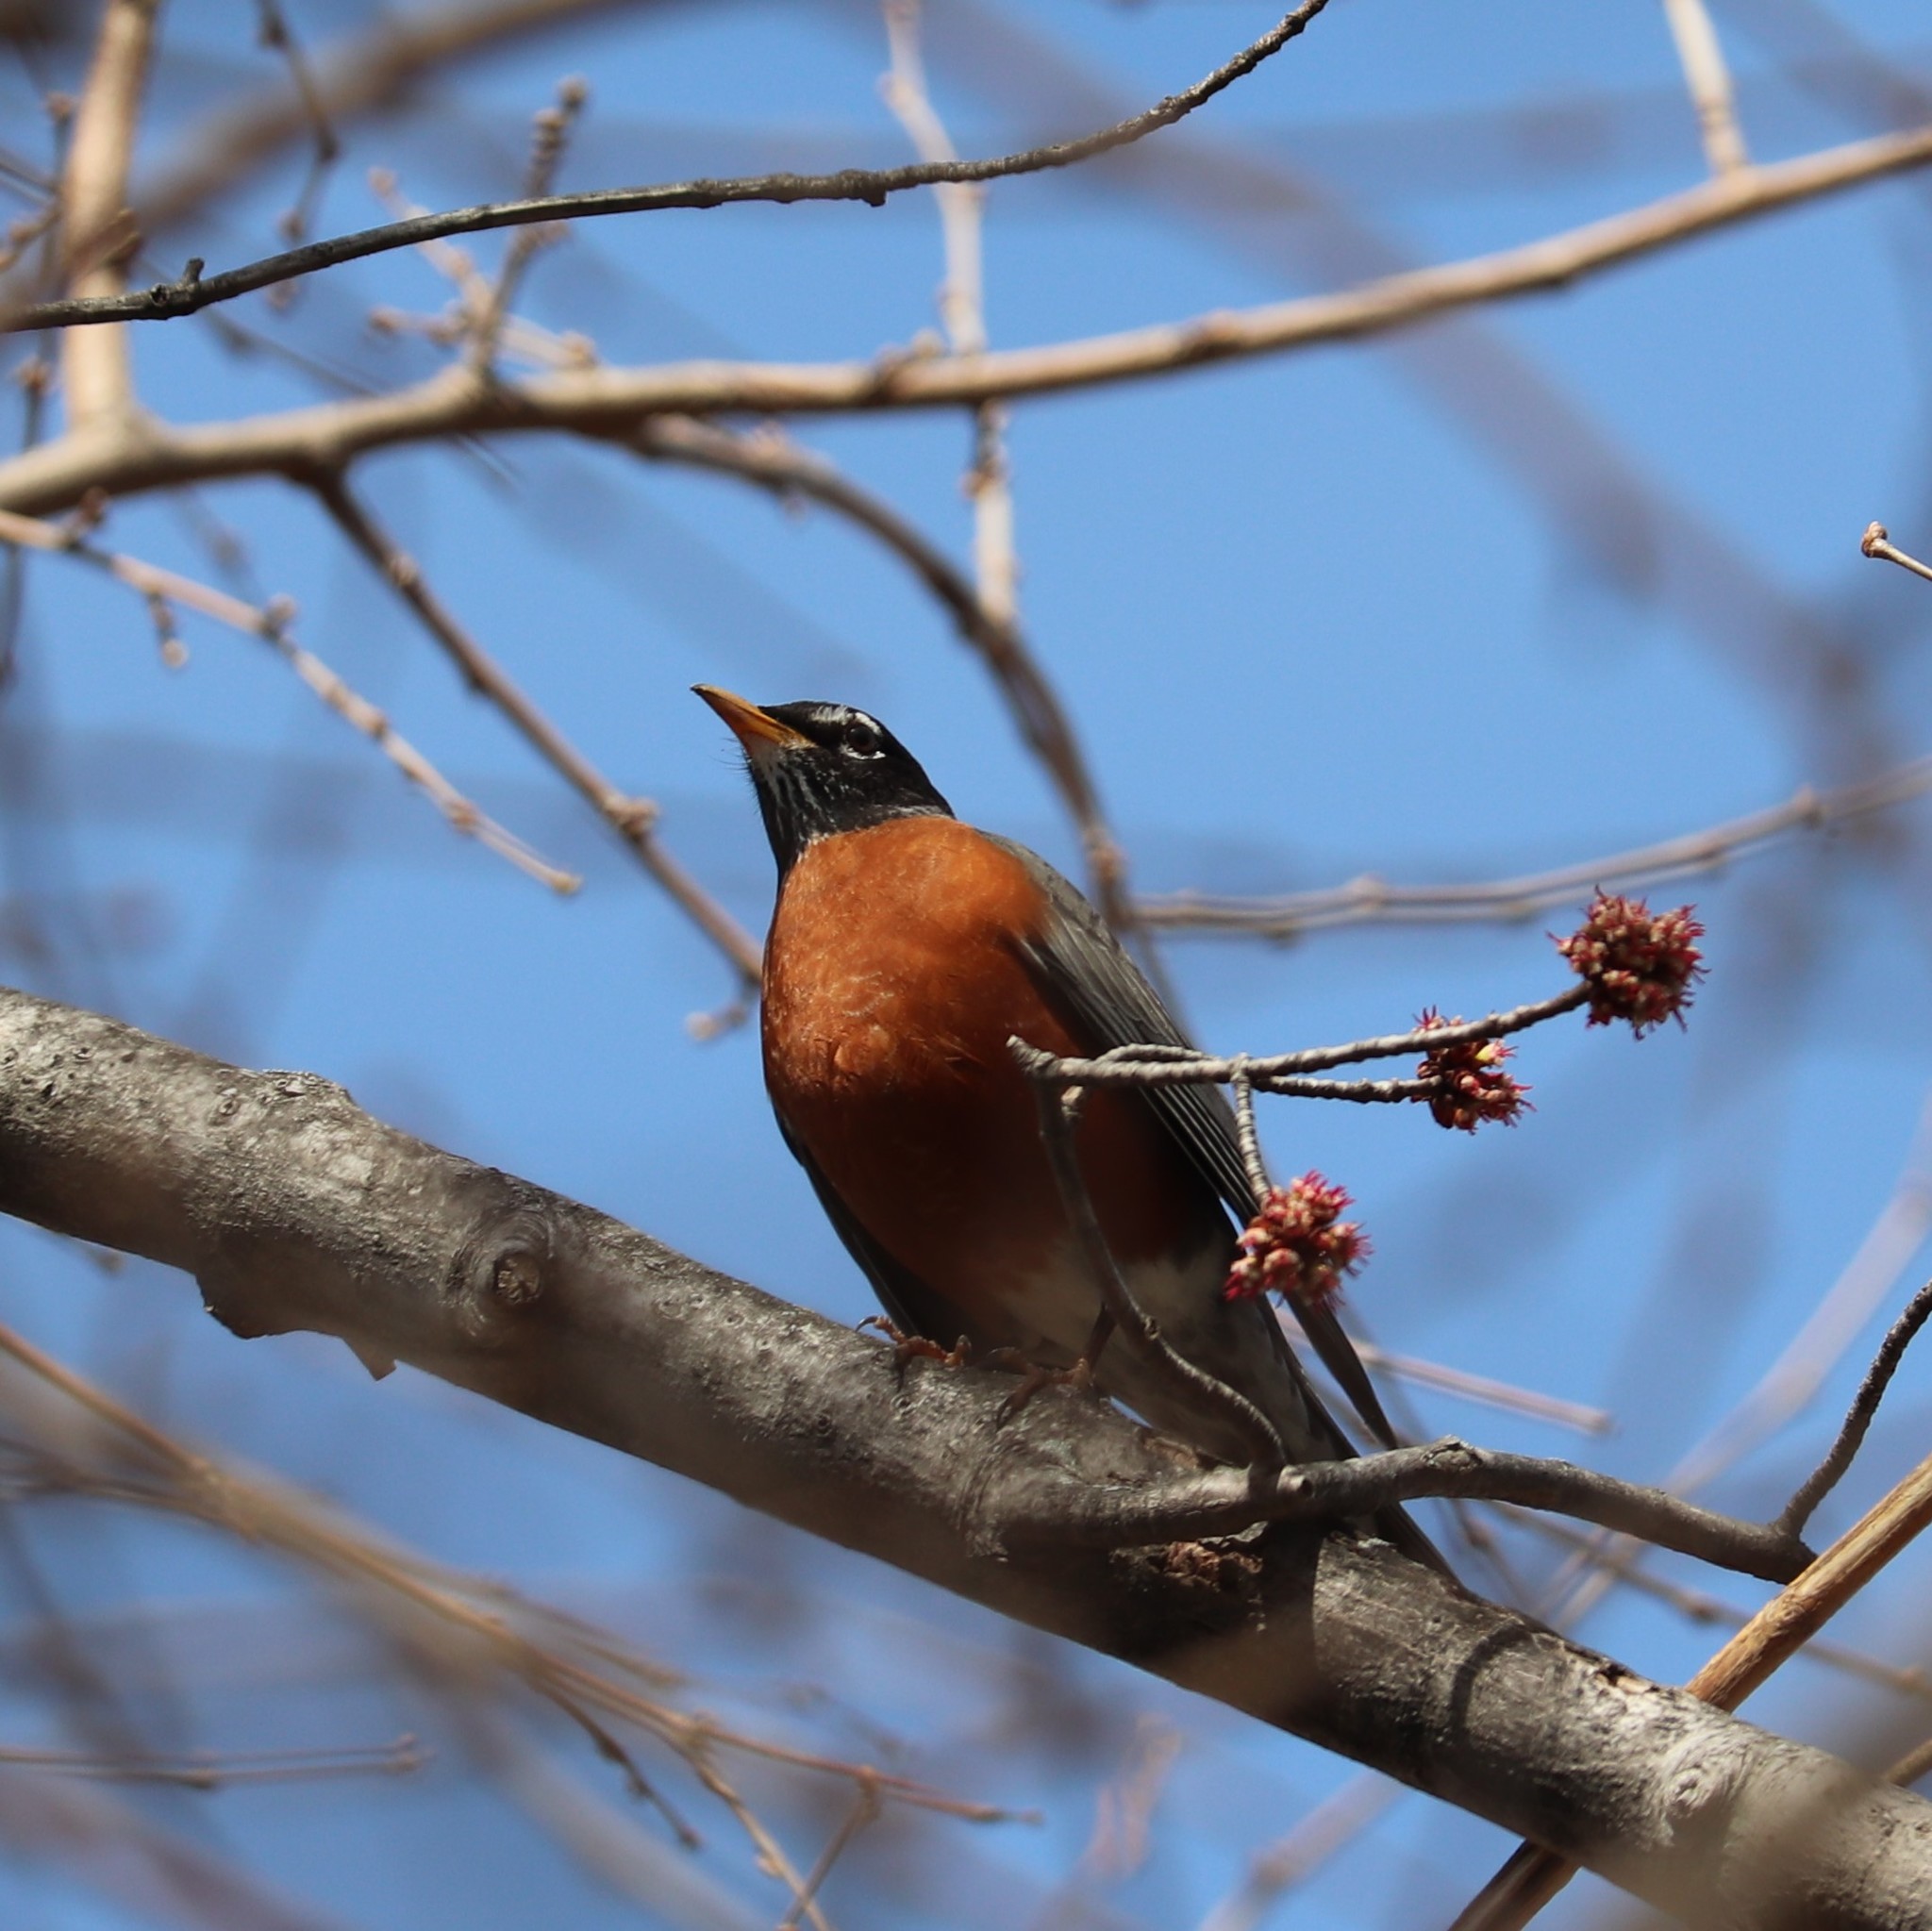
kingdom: Animalia
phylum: Chordata
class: Aves
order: Passeriformes
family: Turdidae
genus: Turdus
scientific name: Turdus migratorius
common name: American robin
